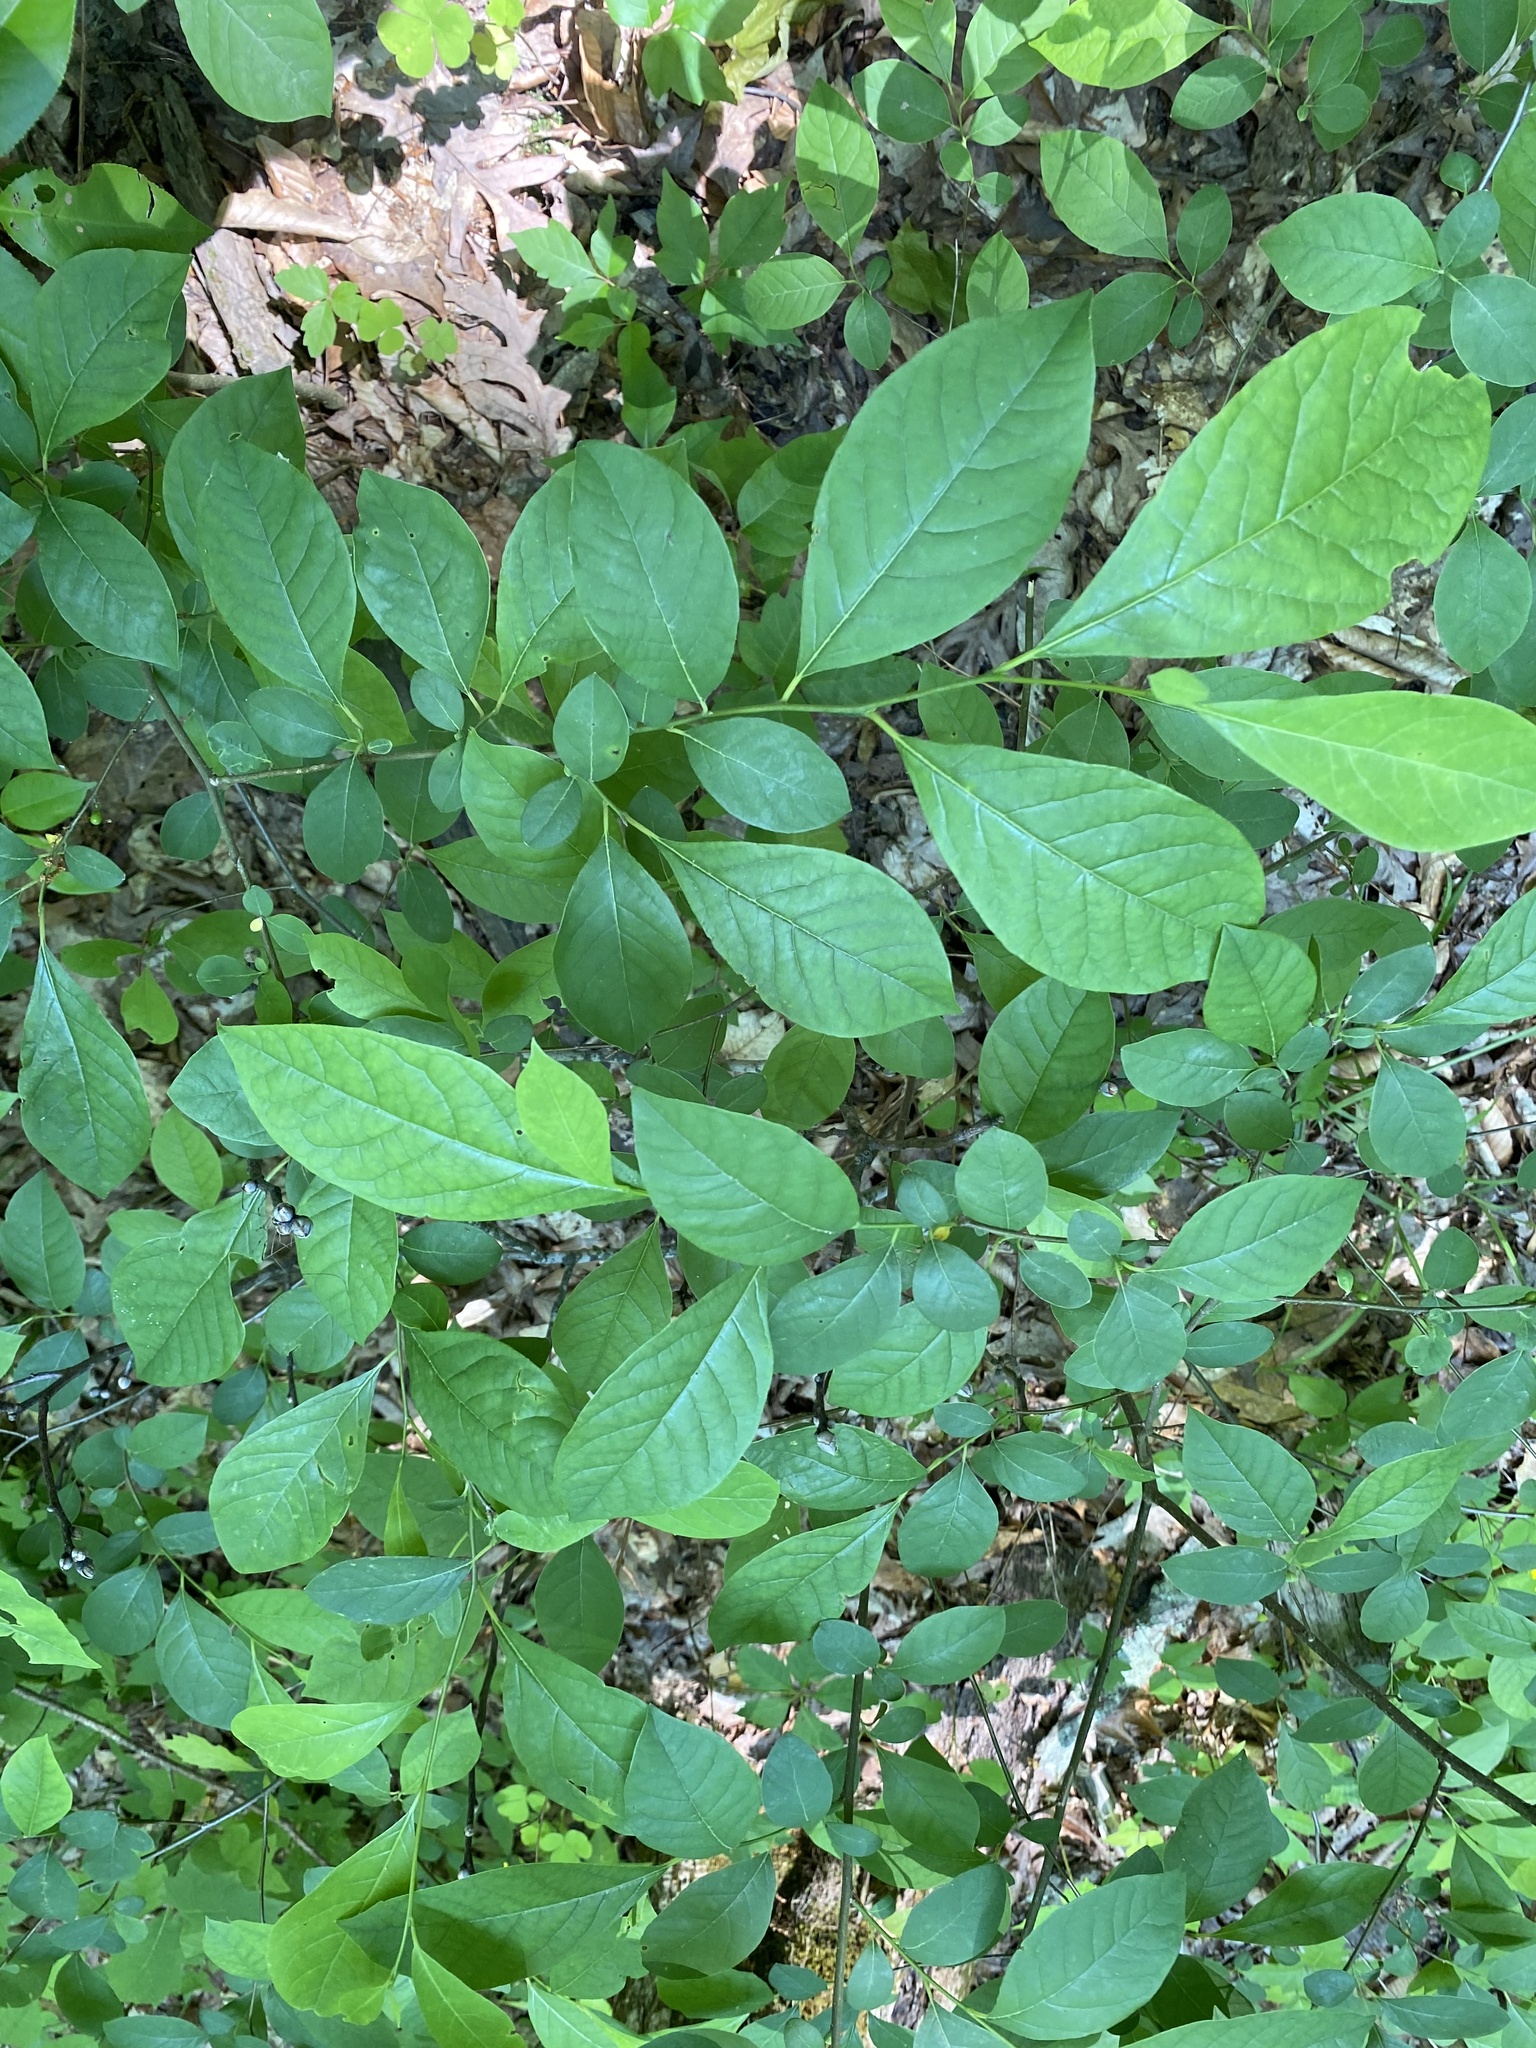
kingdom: Plantae
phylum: Tracheophyta
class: Magnoliopsida
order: Laurales
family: Lauraceae
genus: Lindera
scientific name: Lindera benzoin
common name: Spicebush
